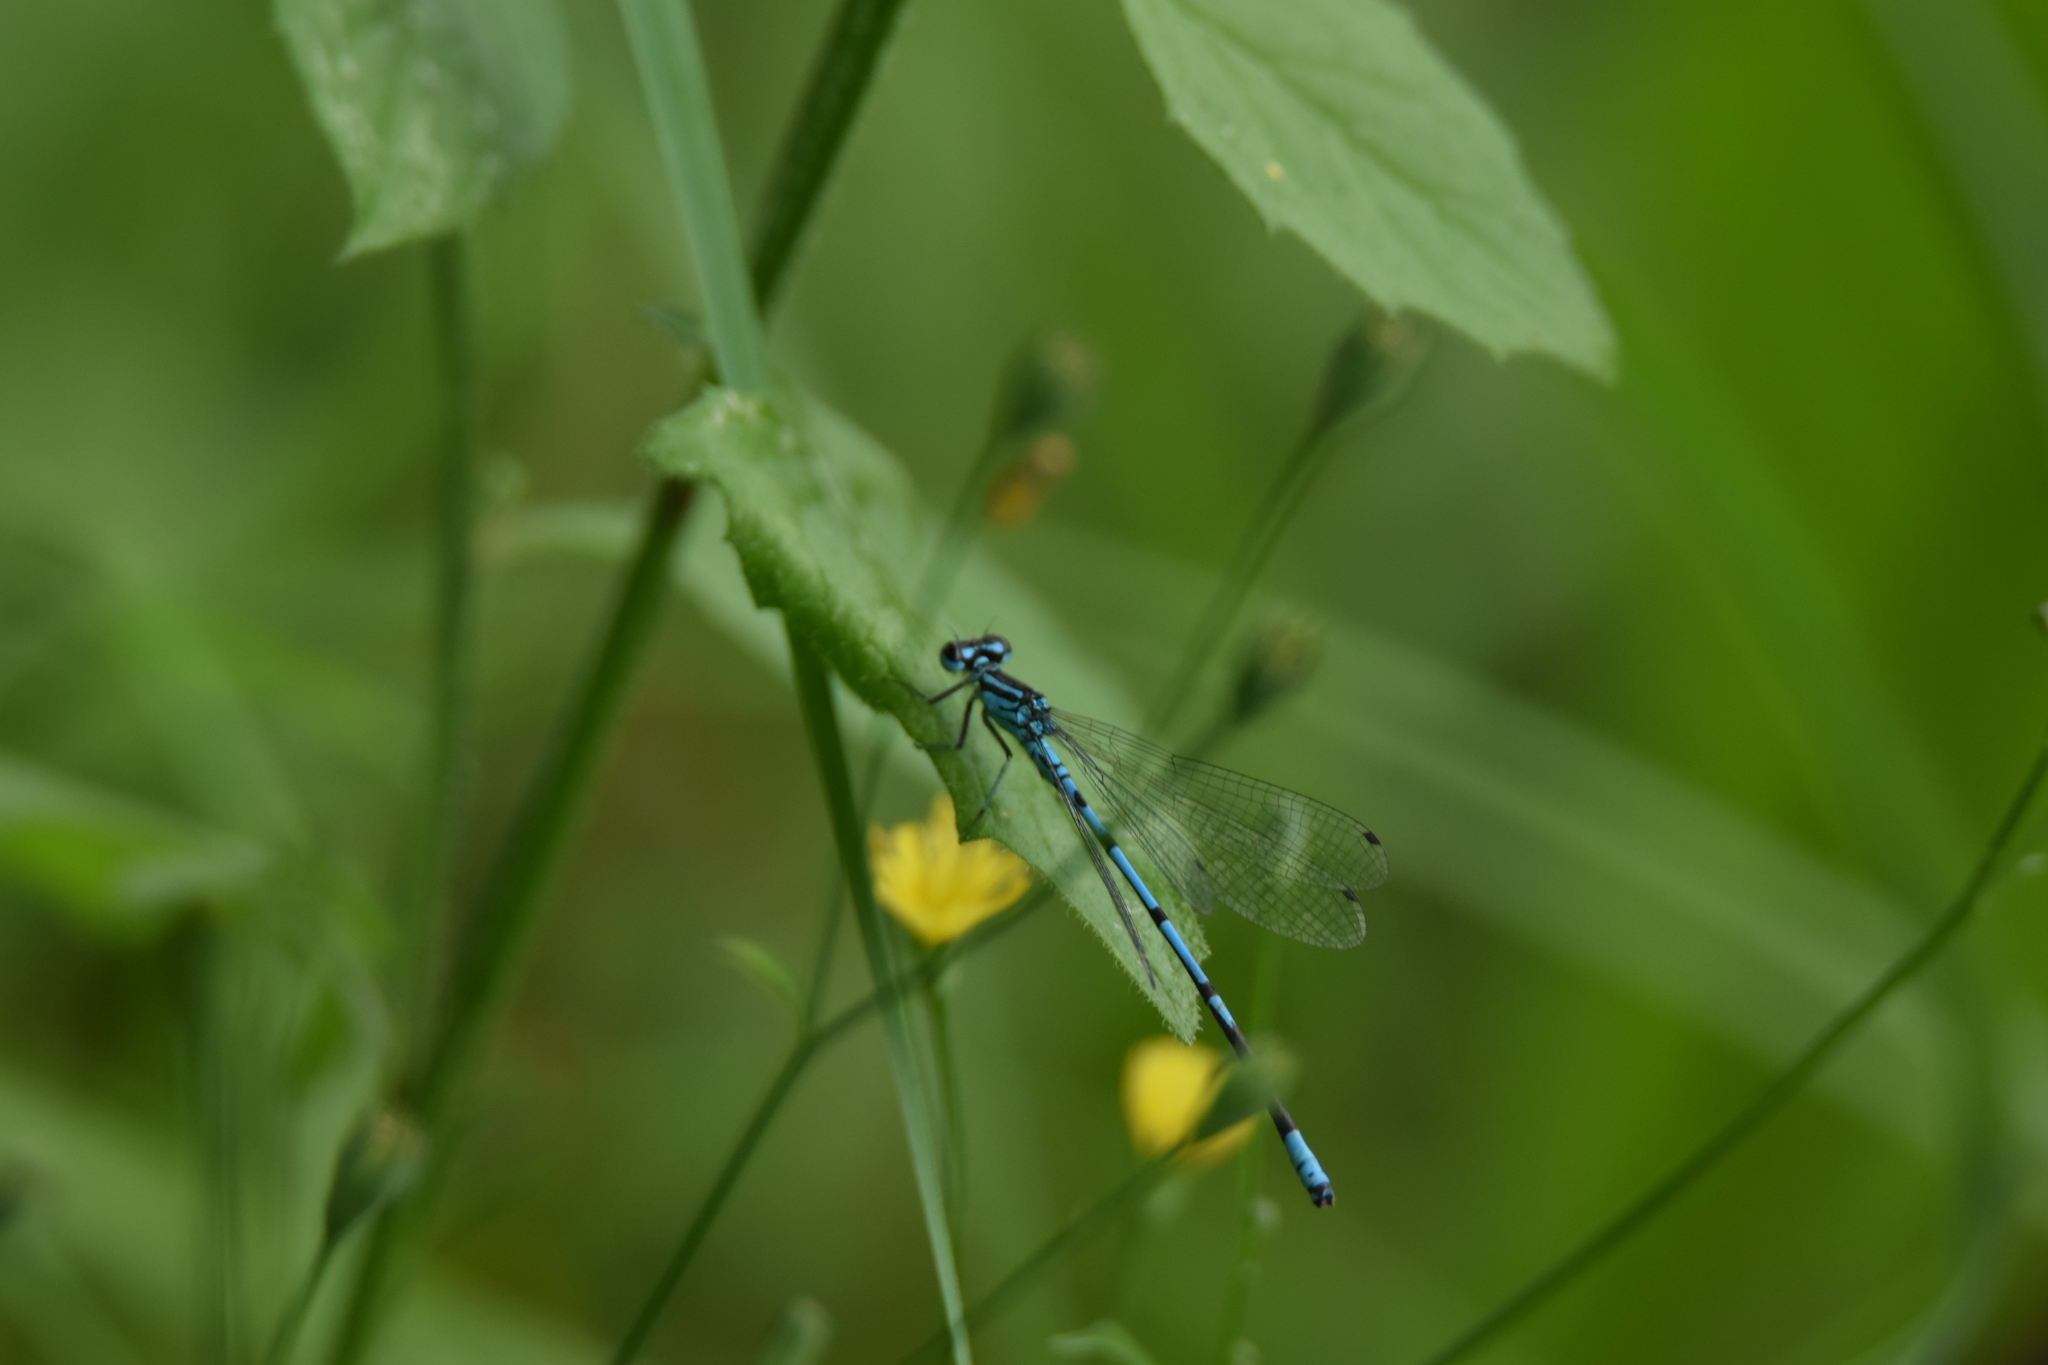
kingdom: Animalia
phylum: Arthropoda
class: Insecta
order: Odonata
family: Coenagrionidae
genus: Coenagrion
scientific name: Coenagrion puella
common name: Azure damselfly
